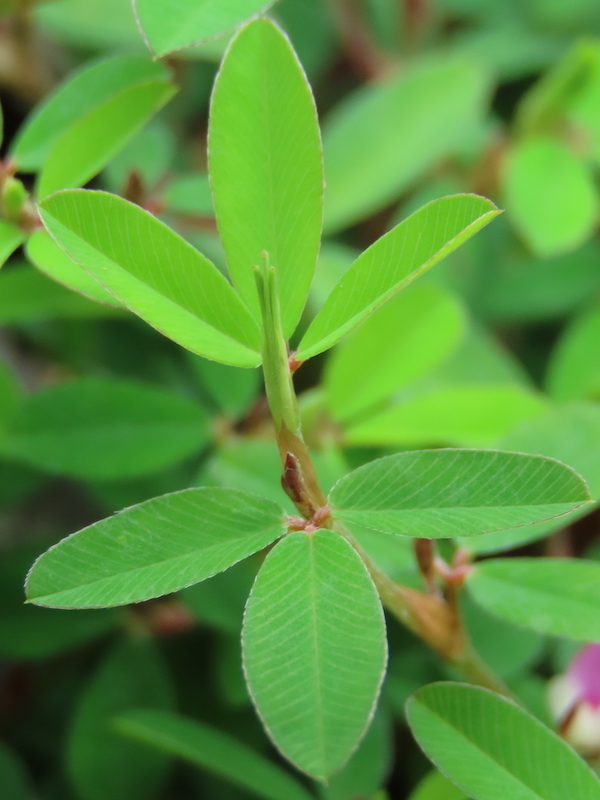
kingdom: Plantae
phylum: Tracheophyta
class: Magnoliopsida
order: Fabales
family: Fabaceae
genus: Kummerowia
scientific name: Kummerowia striata
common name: Japanese clover
